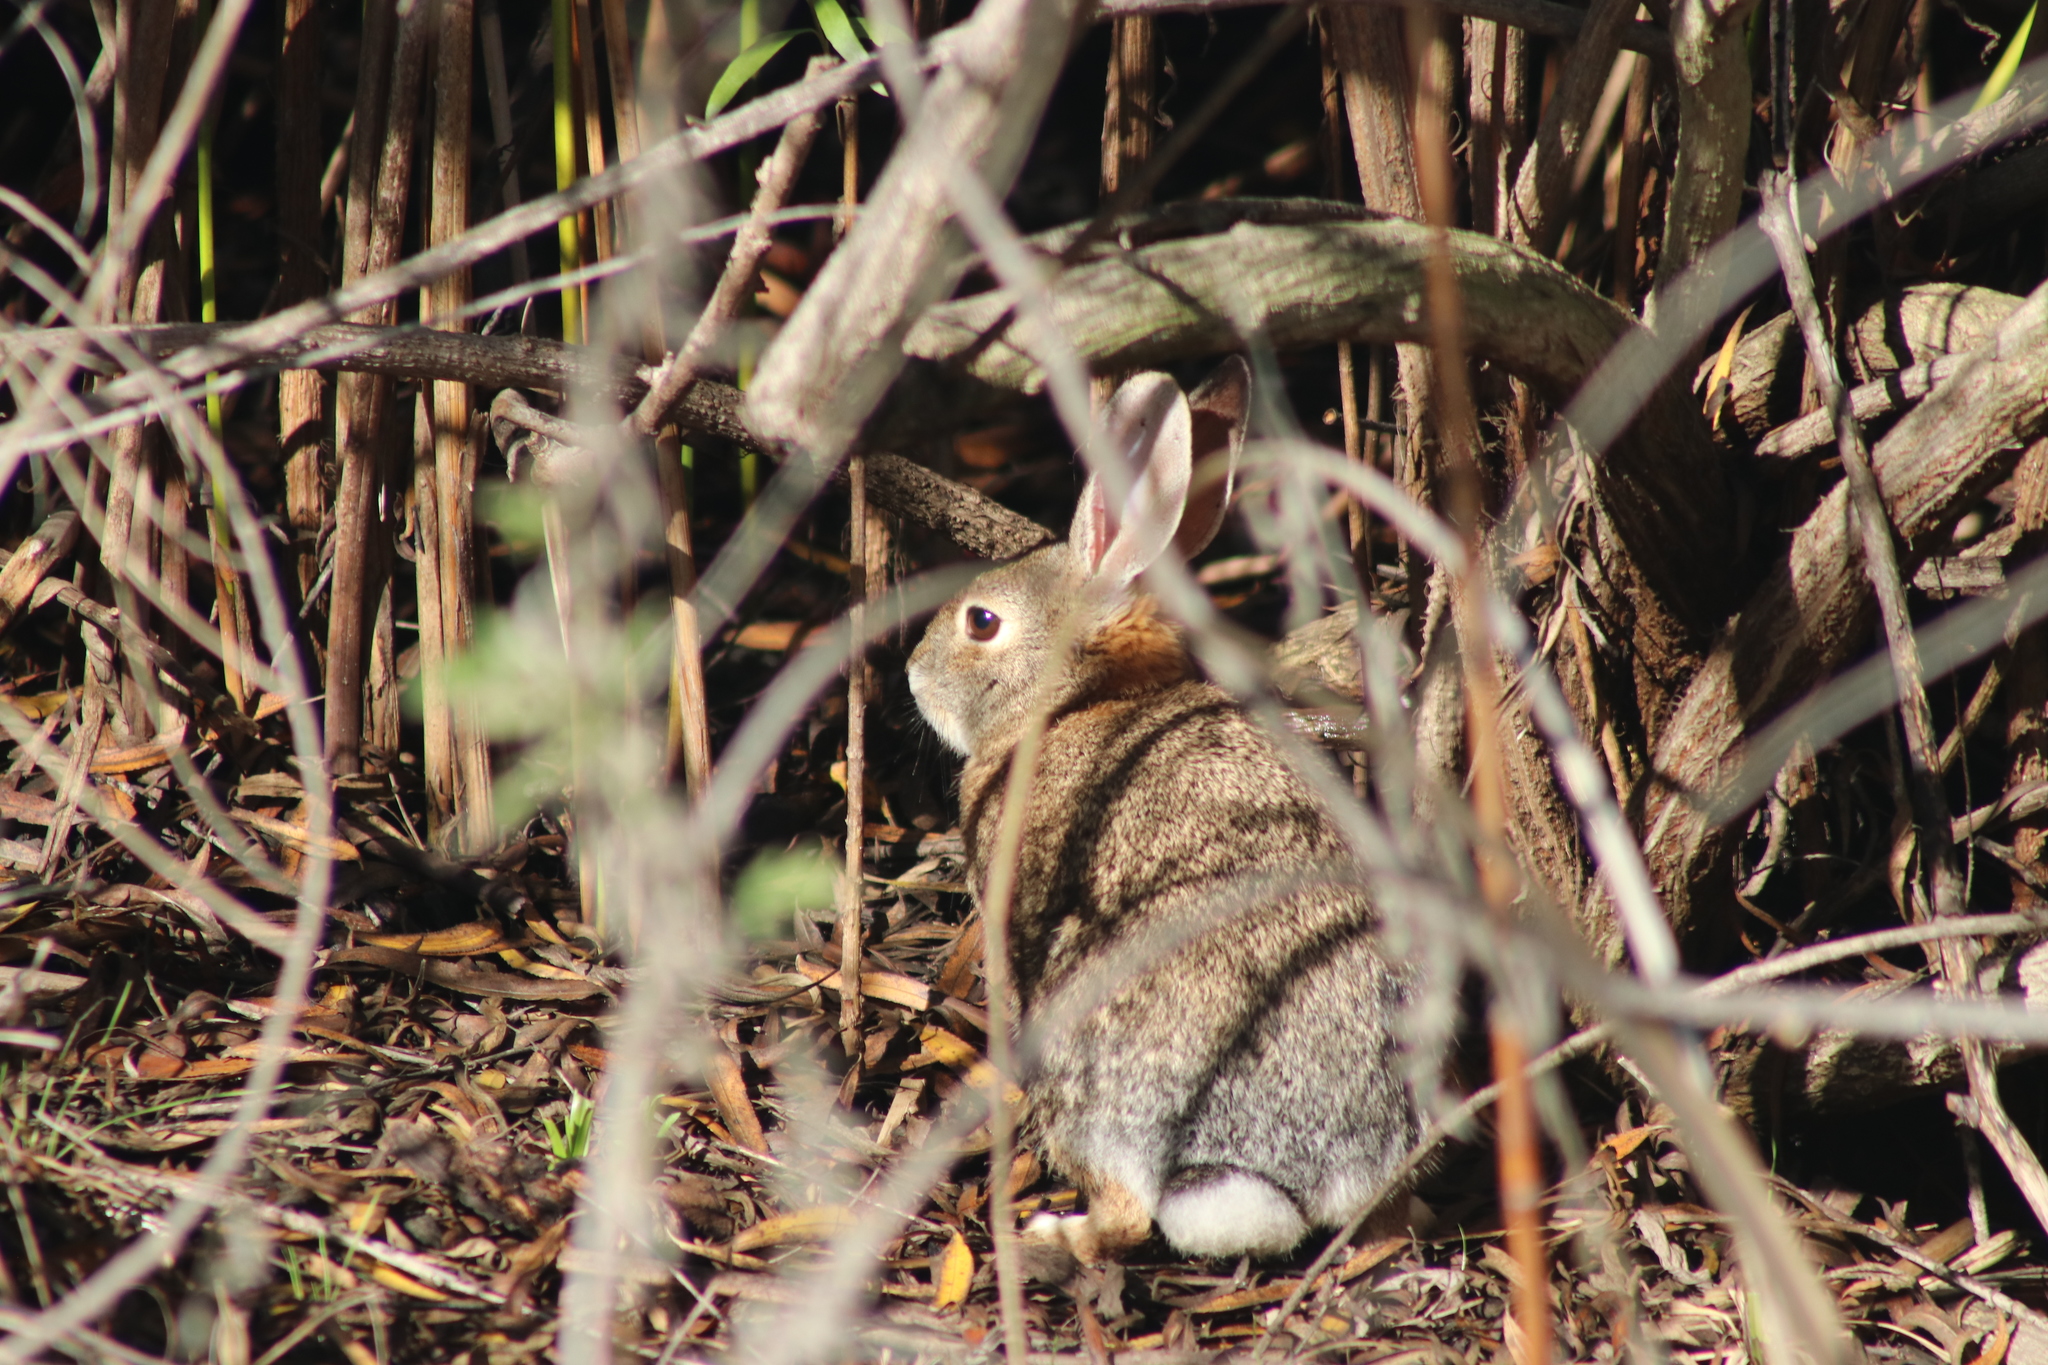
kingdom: Animalia
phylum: Chordata
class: Mammalia
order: Lagomorpha
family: Leporidae
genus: Sylvilagus
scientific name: Sylvilagus audubonii
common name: Desert cottontail
